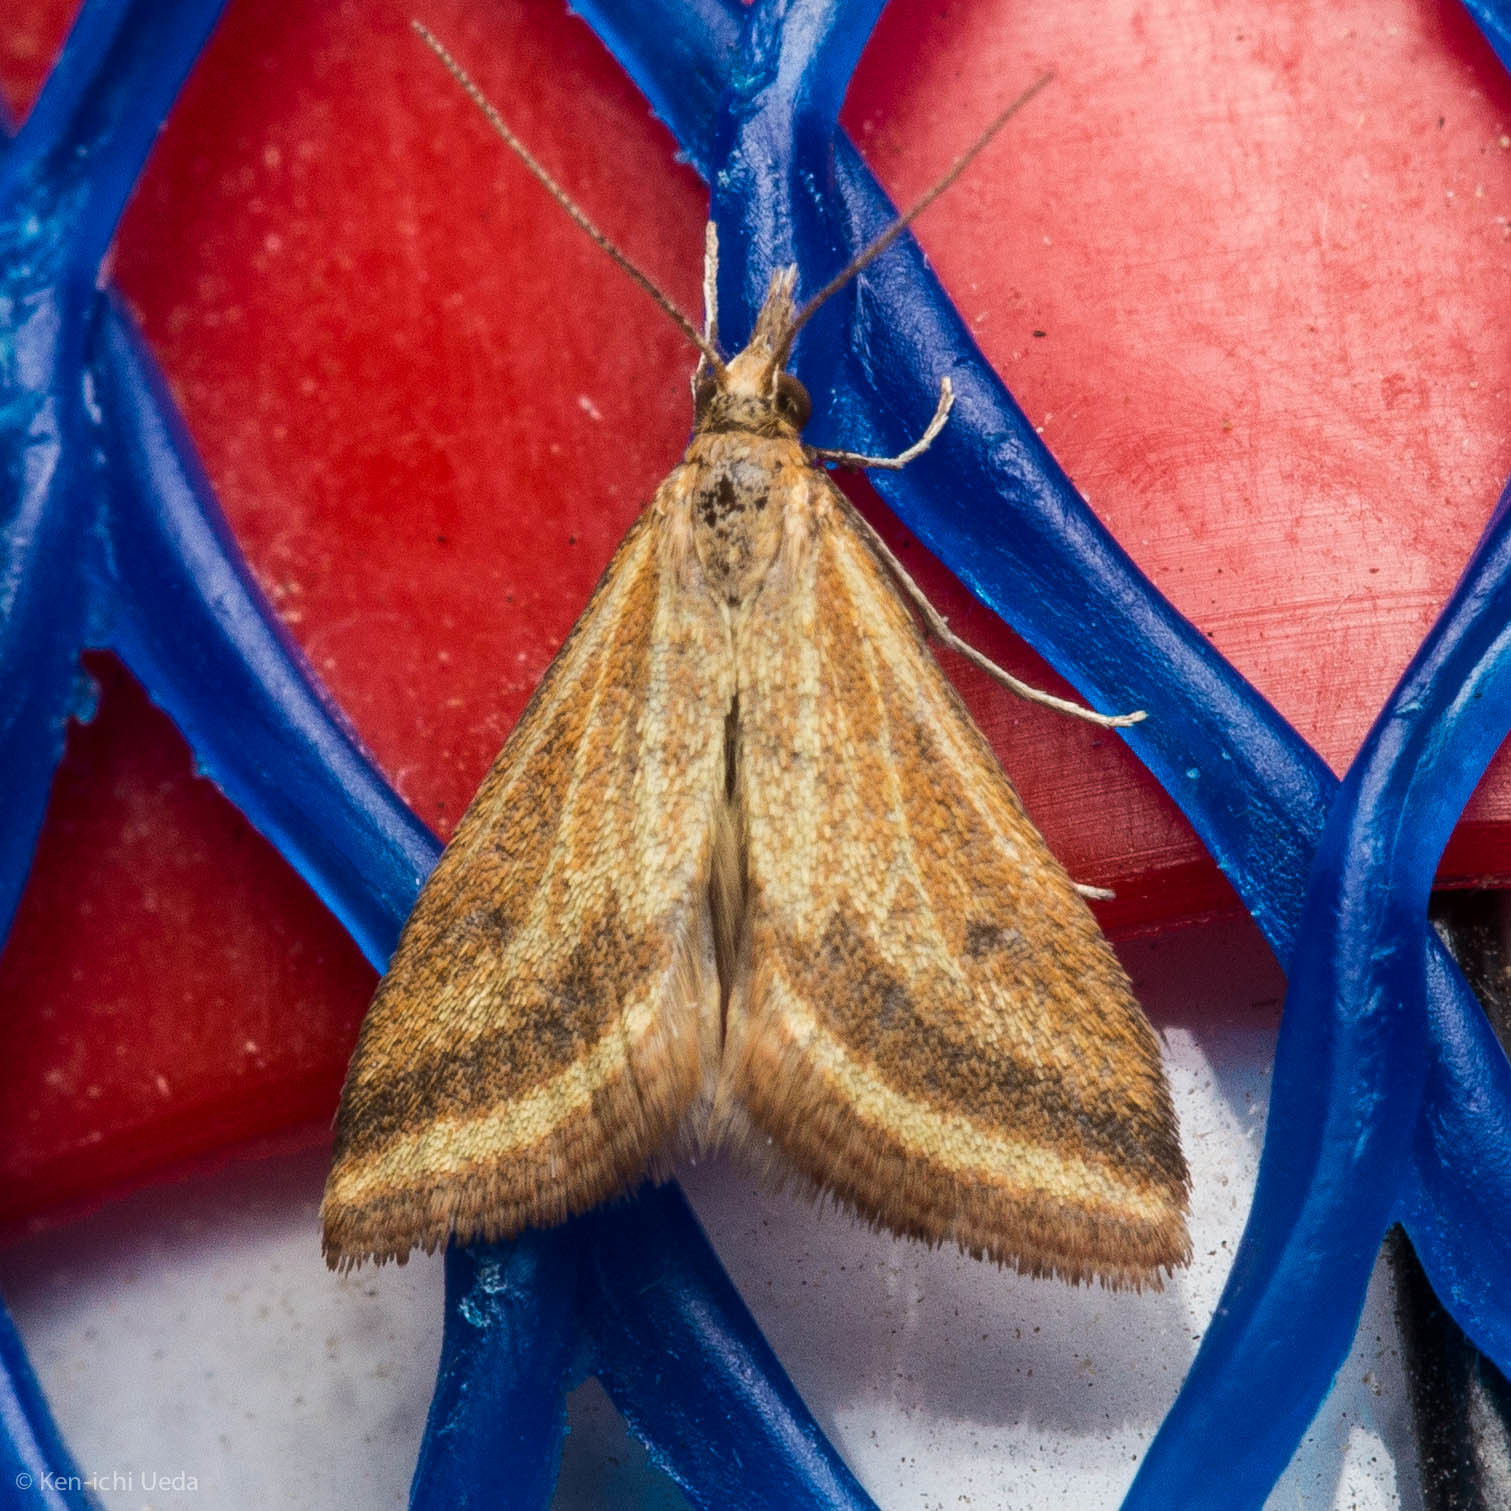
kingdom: Animalia
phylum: Arthropoda
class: Insecta
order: Lepidoptera
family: Crambidae
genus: Microtheoris
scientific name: Microtheoris ophionalis
